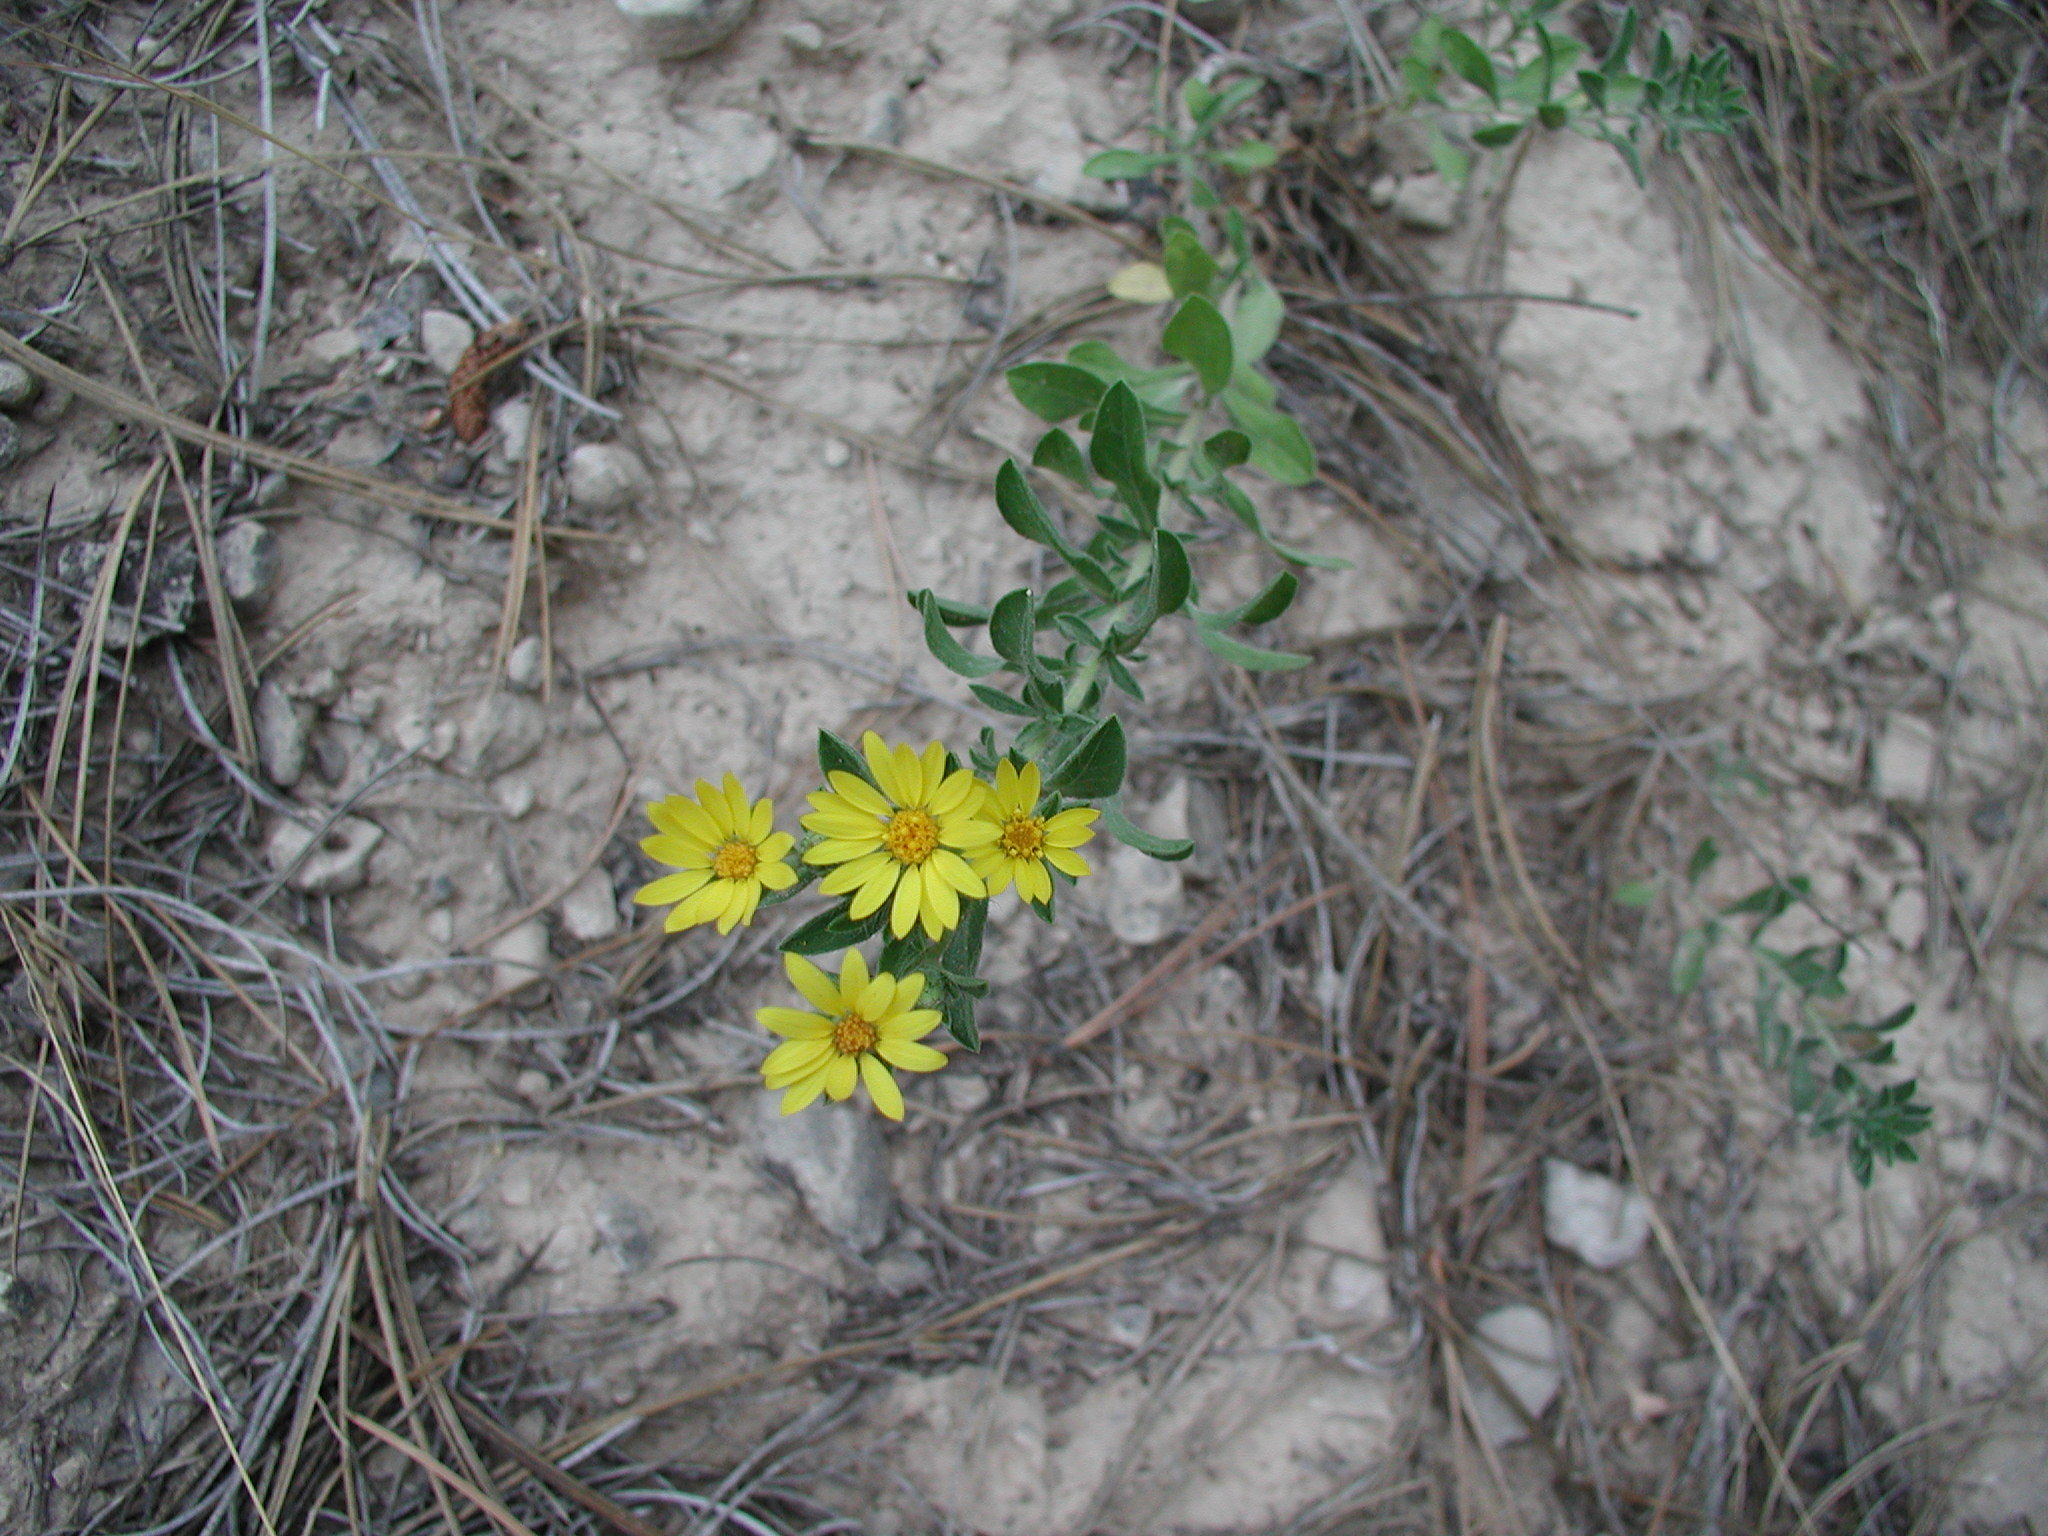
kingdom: Plantae
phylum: Tracheophyta
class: Magnoliopsida
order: Asterales
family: Asteraceae
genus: Heterotheca
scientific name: Heterotheca villosa
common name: Hairy false goldenaster
